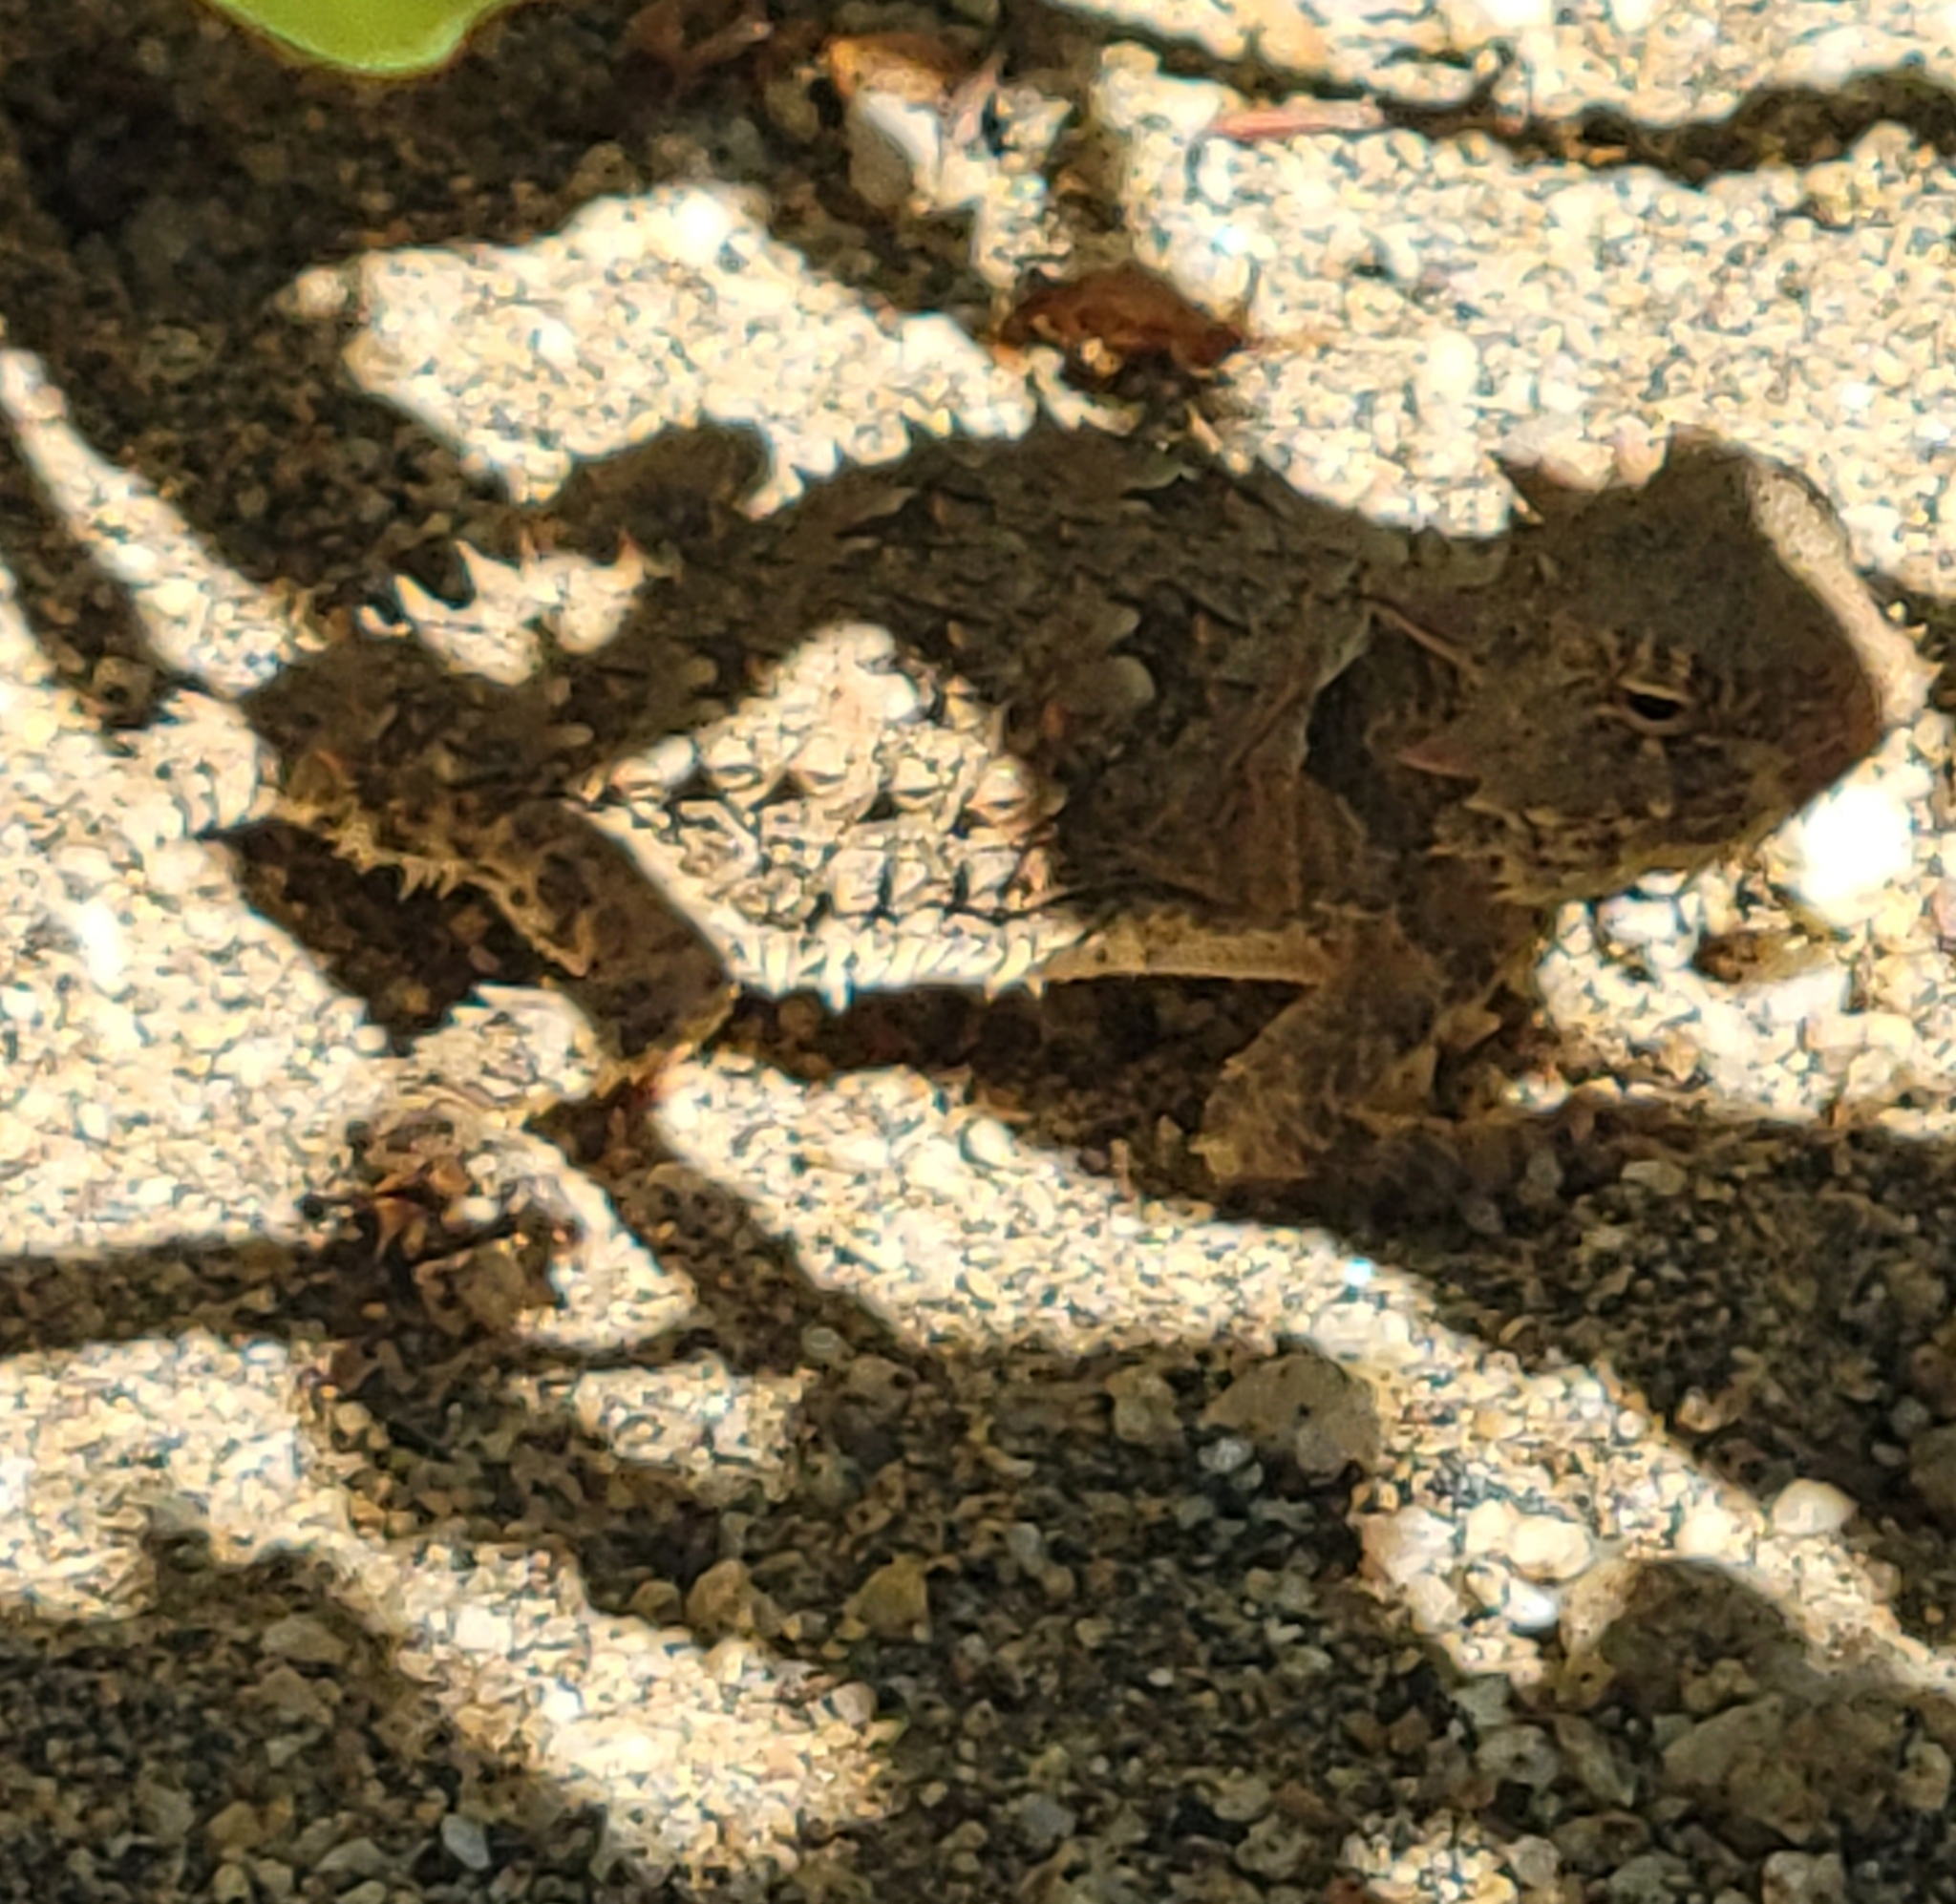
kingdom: Animalia
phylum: Chordata
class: Squamata
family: Phrynosomatidae
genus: Phrynosoma
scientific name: Phrynosoma blainvillii
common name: San diego horned lizard
